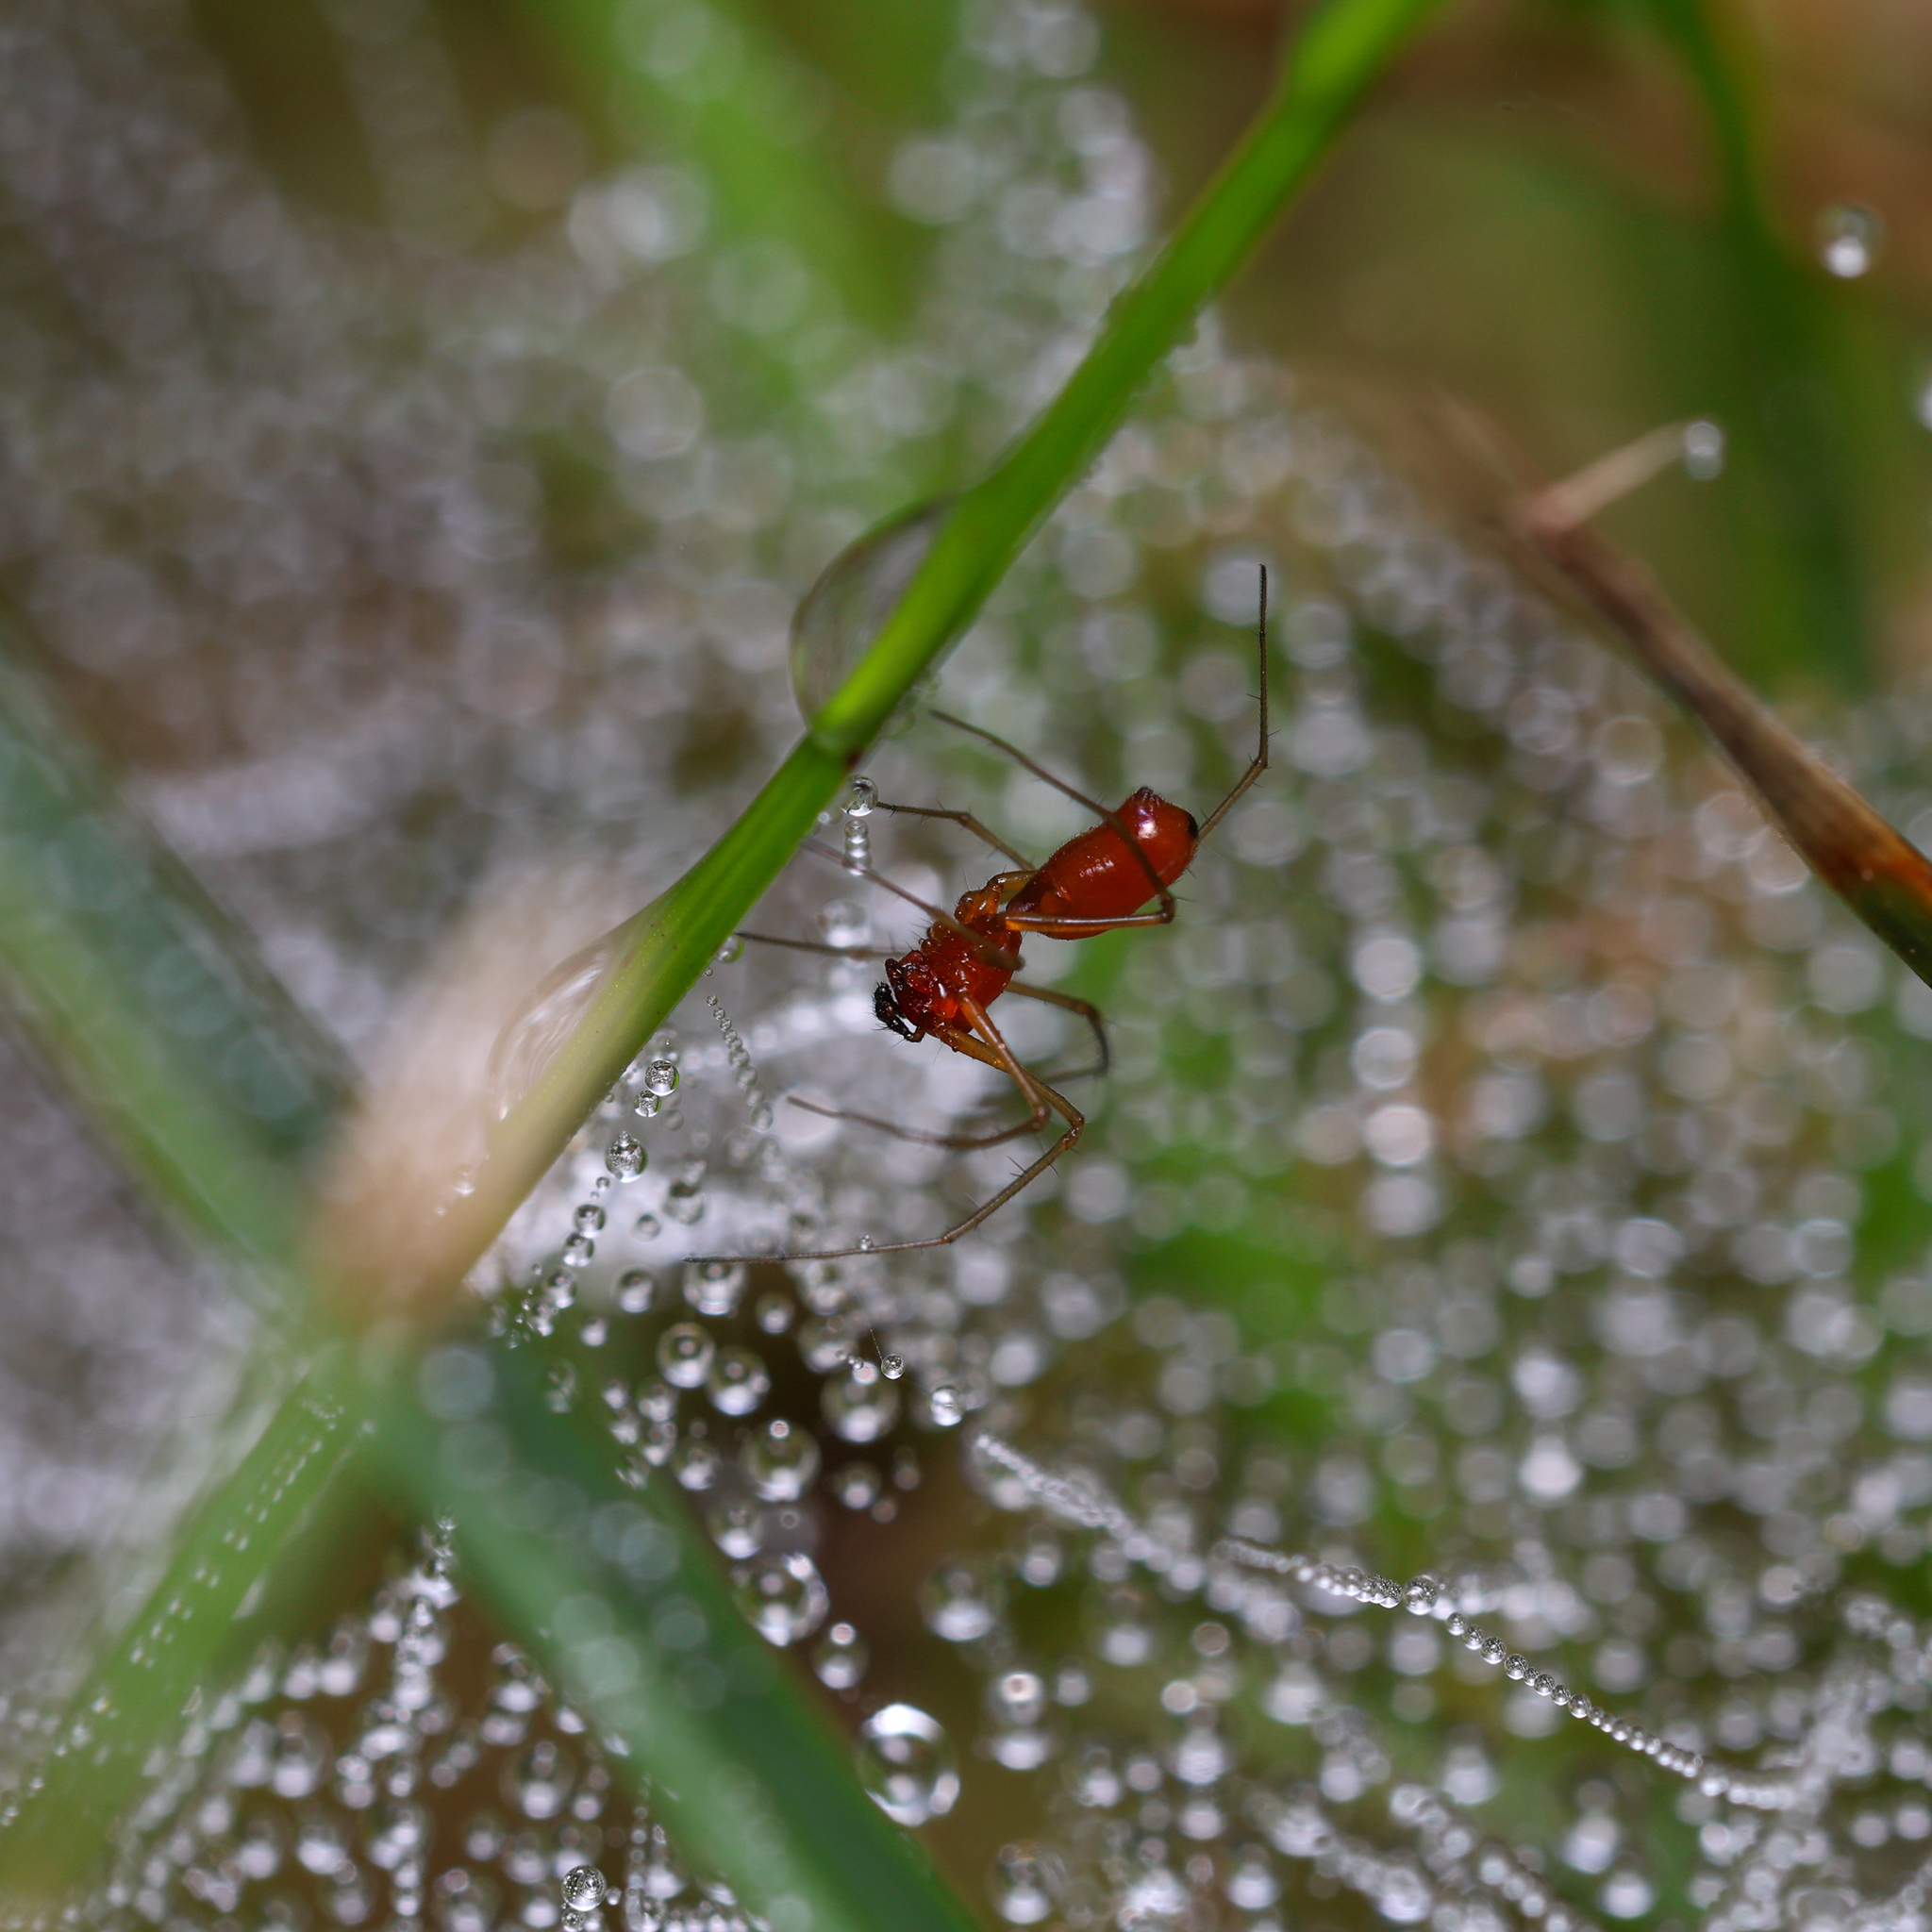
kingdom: Animalia
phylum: Arthropoda
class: Arachnida
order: Araneae
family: Linyphiidae
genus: Florinda
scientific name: Florinda coccinea
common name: Black-tailed red sheetweaver
